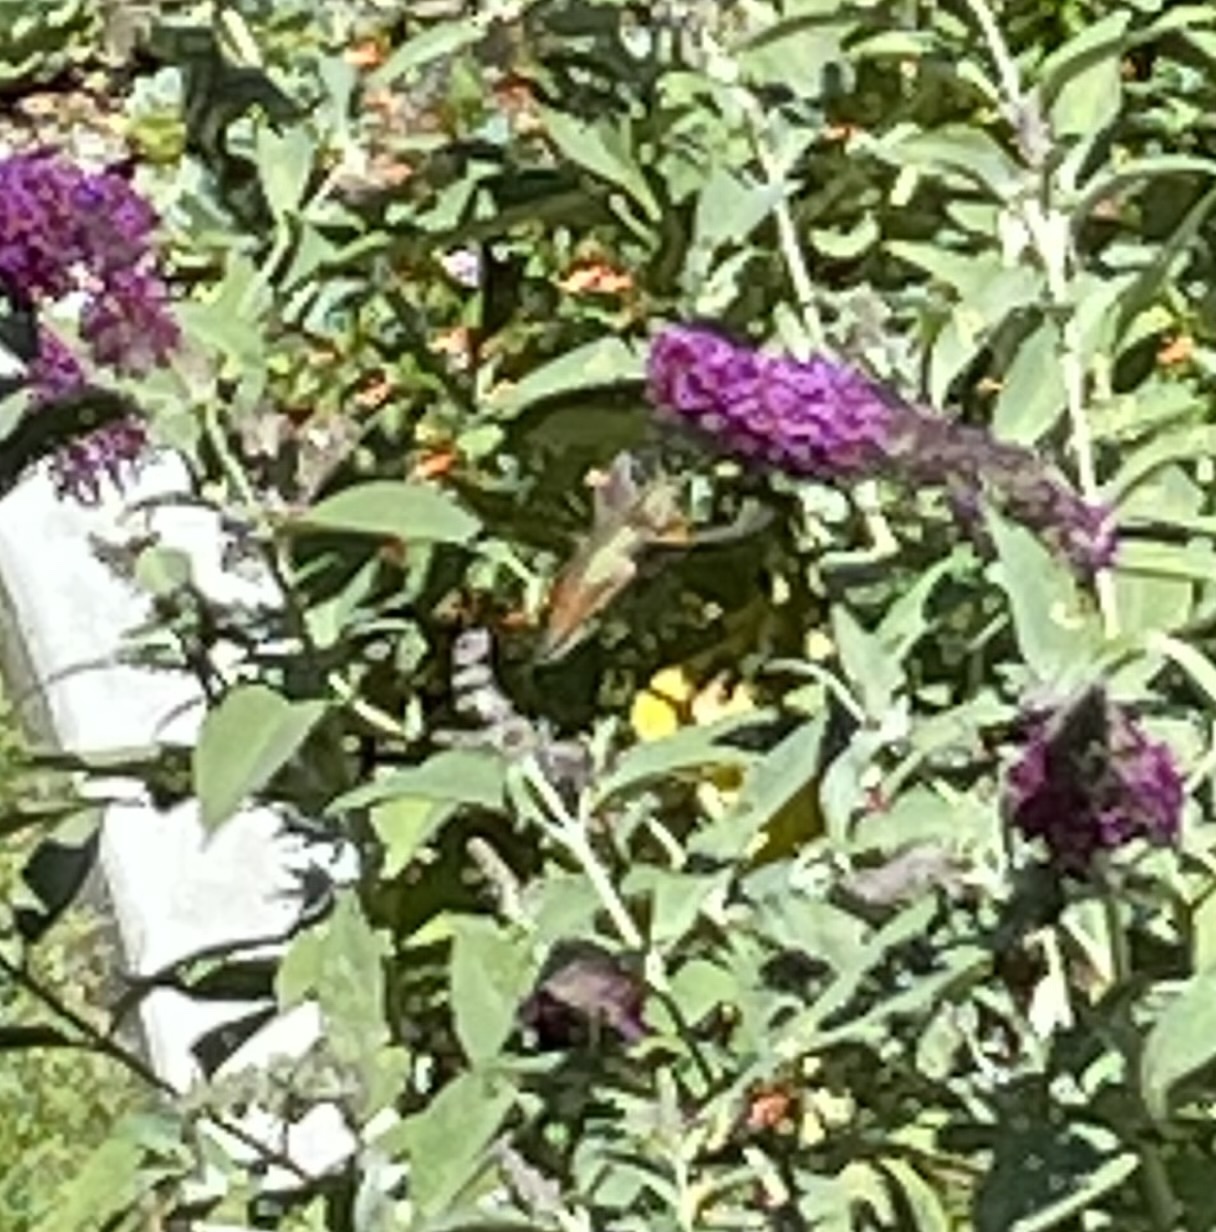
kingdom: Animalia
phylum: Chordata
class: Aves
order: Apodiformes
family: Trochilidae
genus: Selasphorus
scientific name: Selasphorus sasin
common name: Allen's hummingbird
